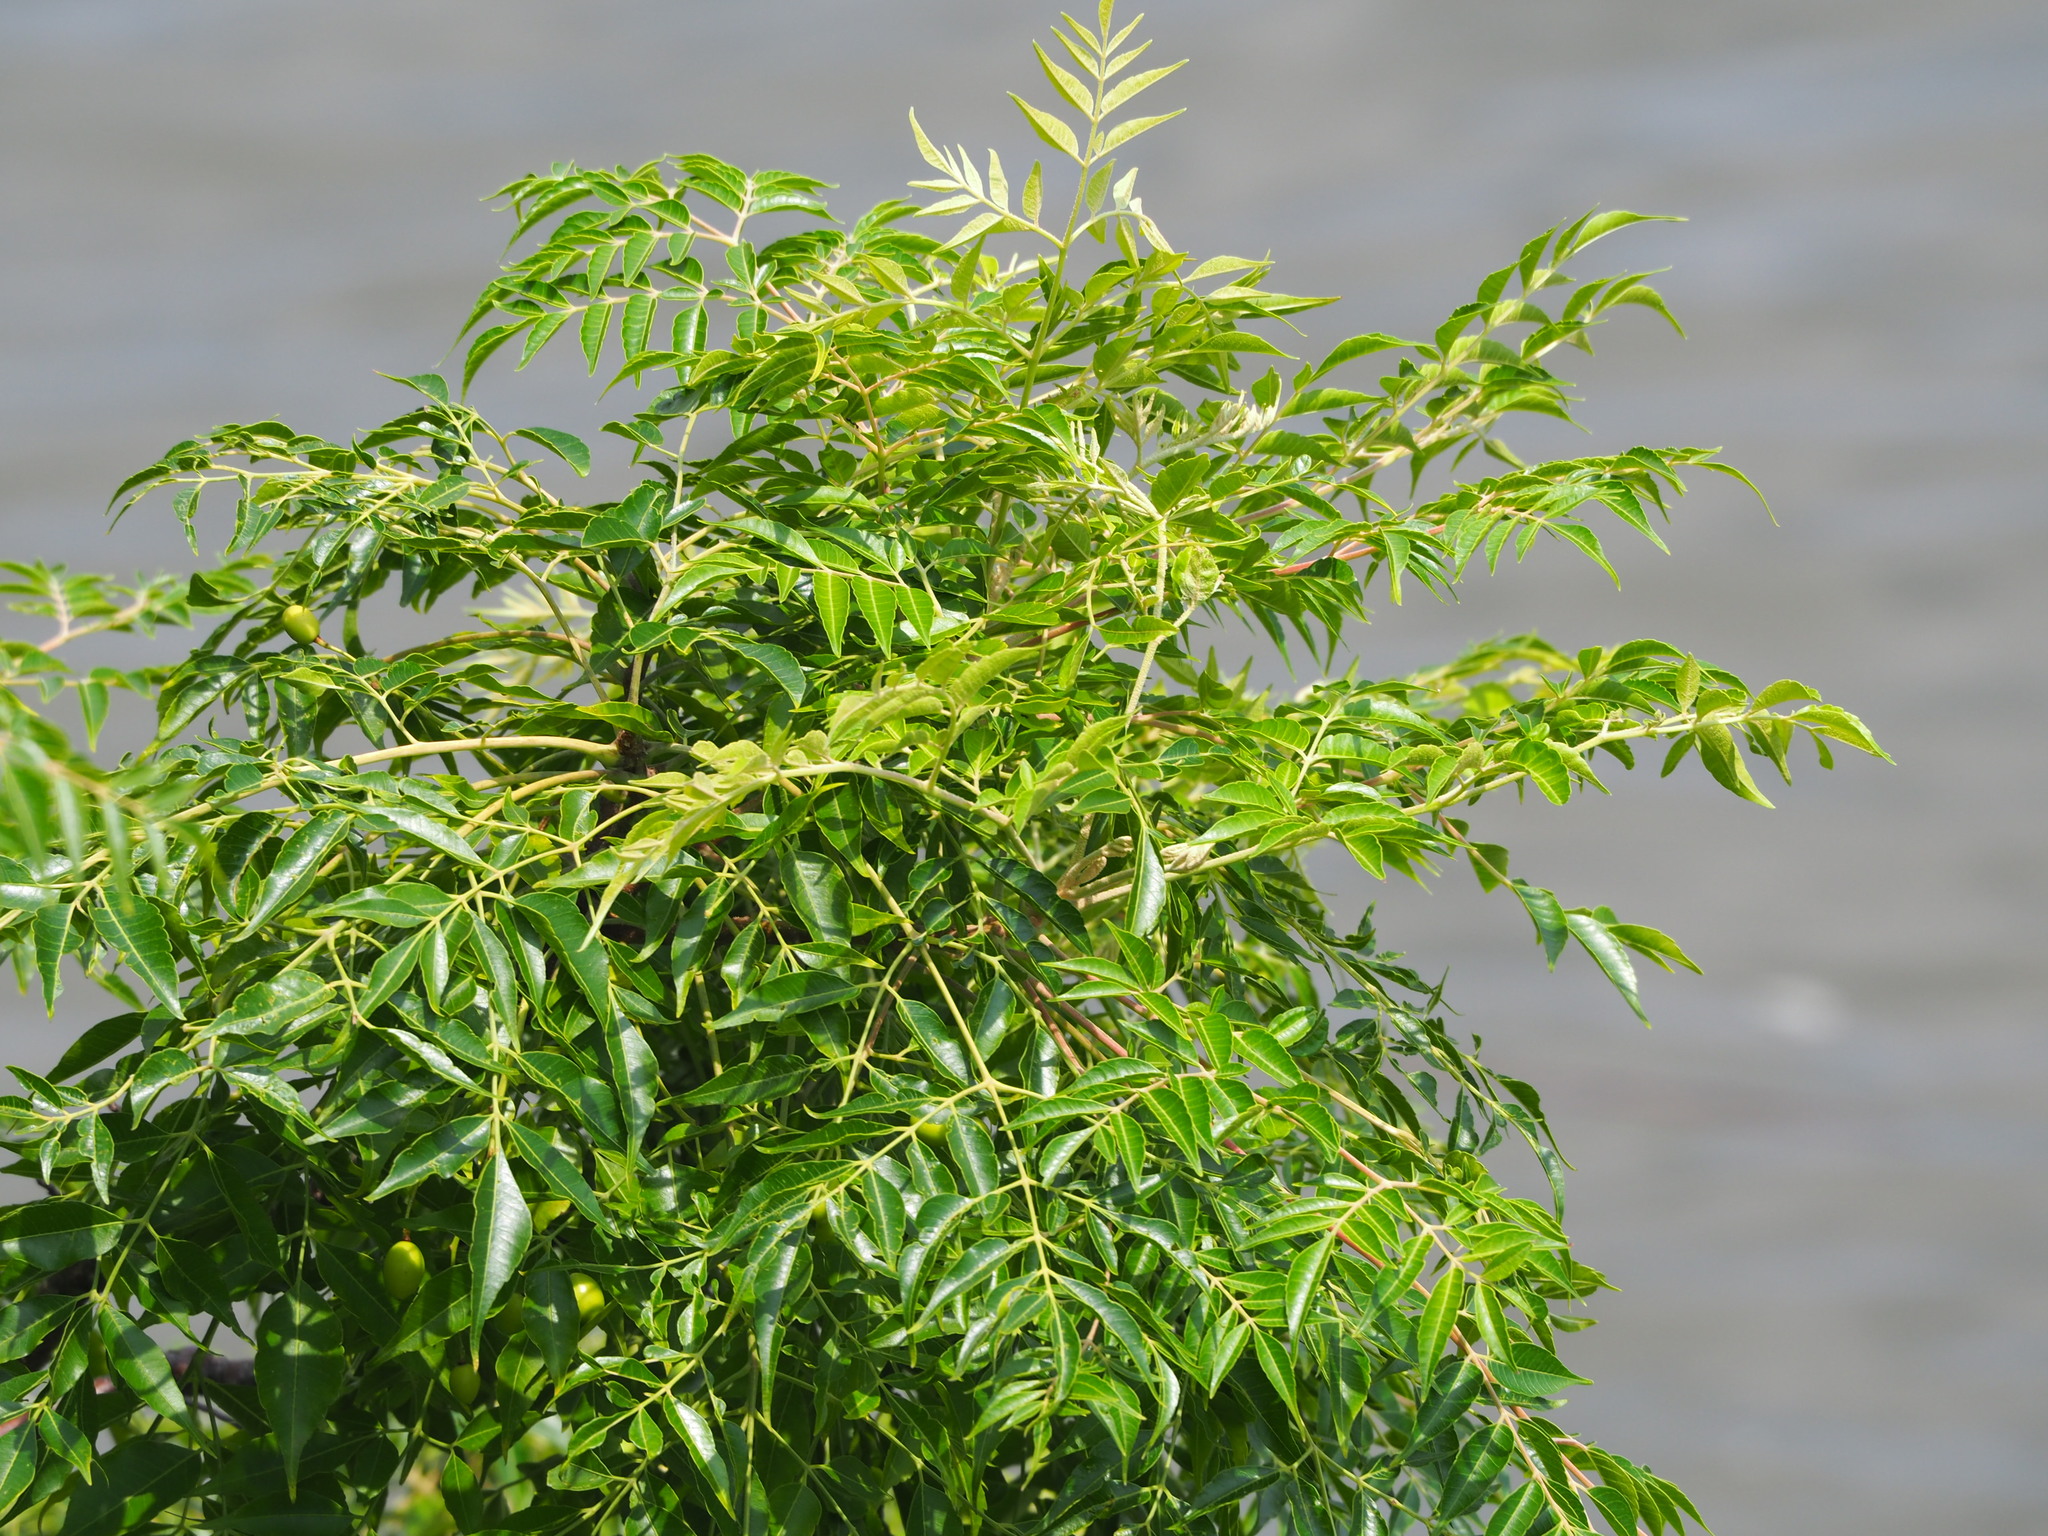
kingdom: Plantae
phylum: Tracheophyta
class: Magnoliopsida
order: Sapindales
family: Meliaceae
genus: Melia
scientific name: Melia azedarach
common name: Chinaberrytree
